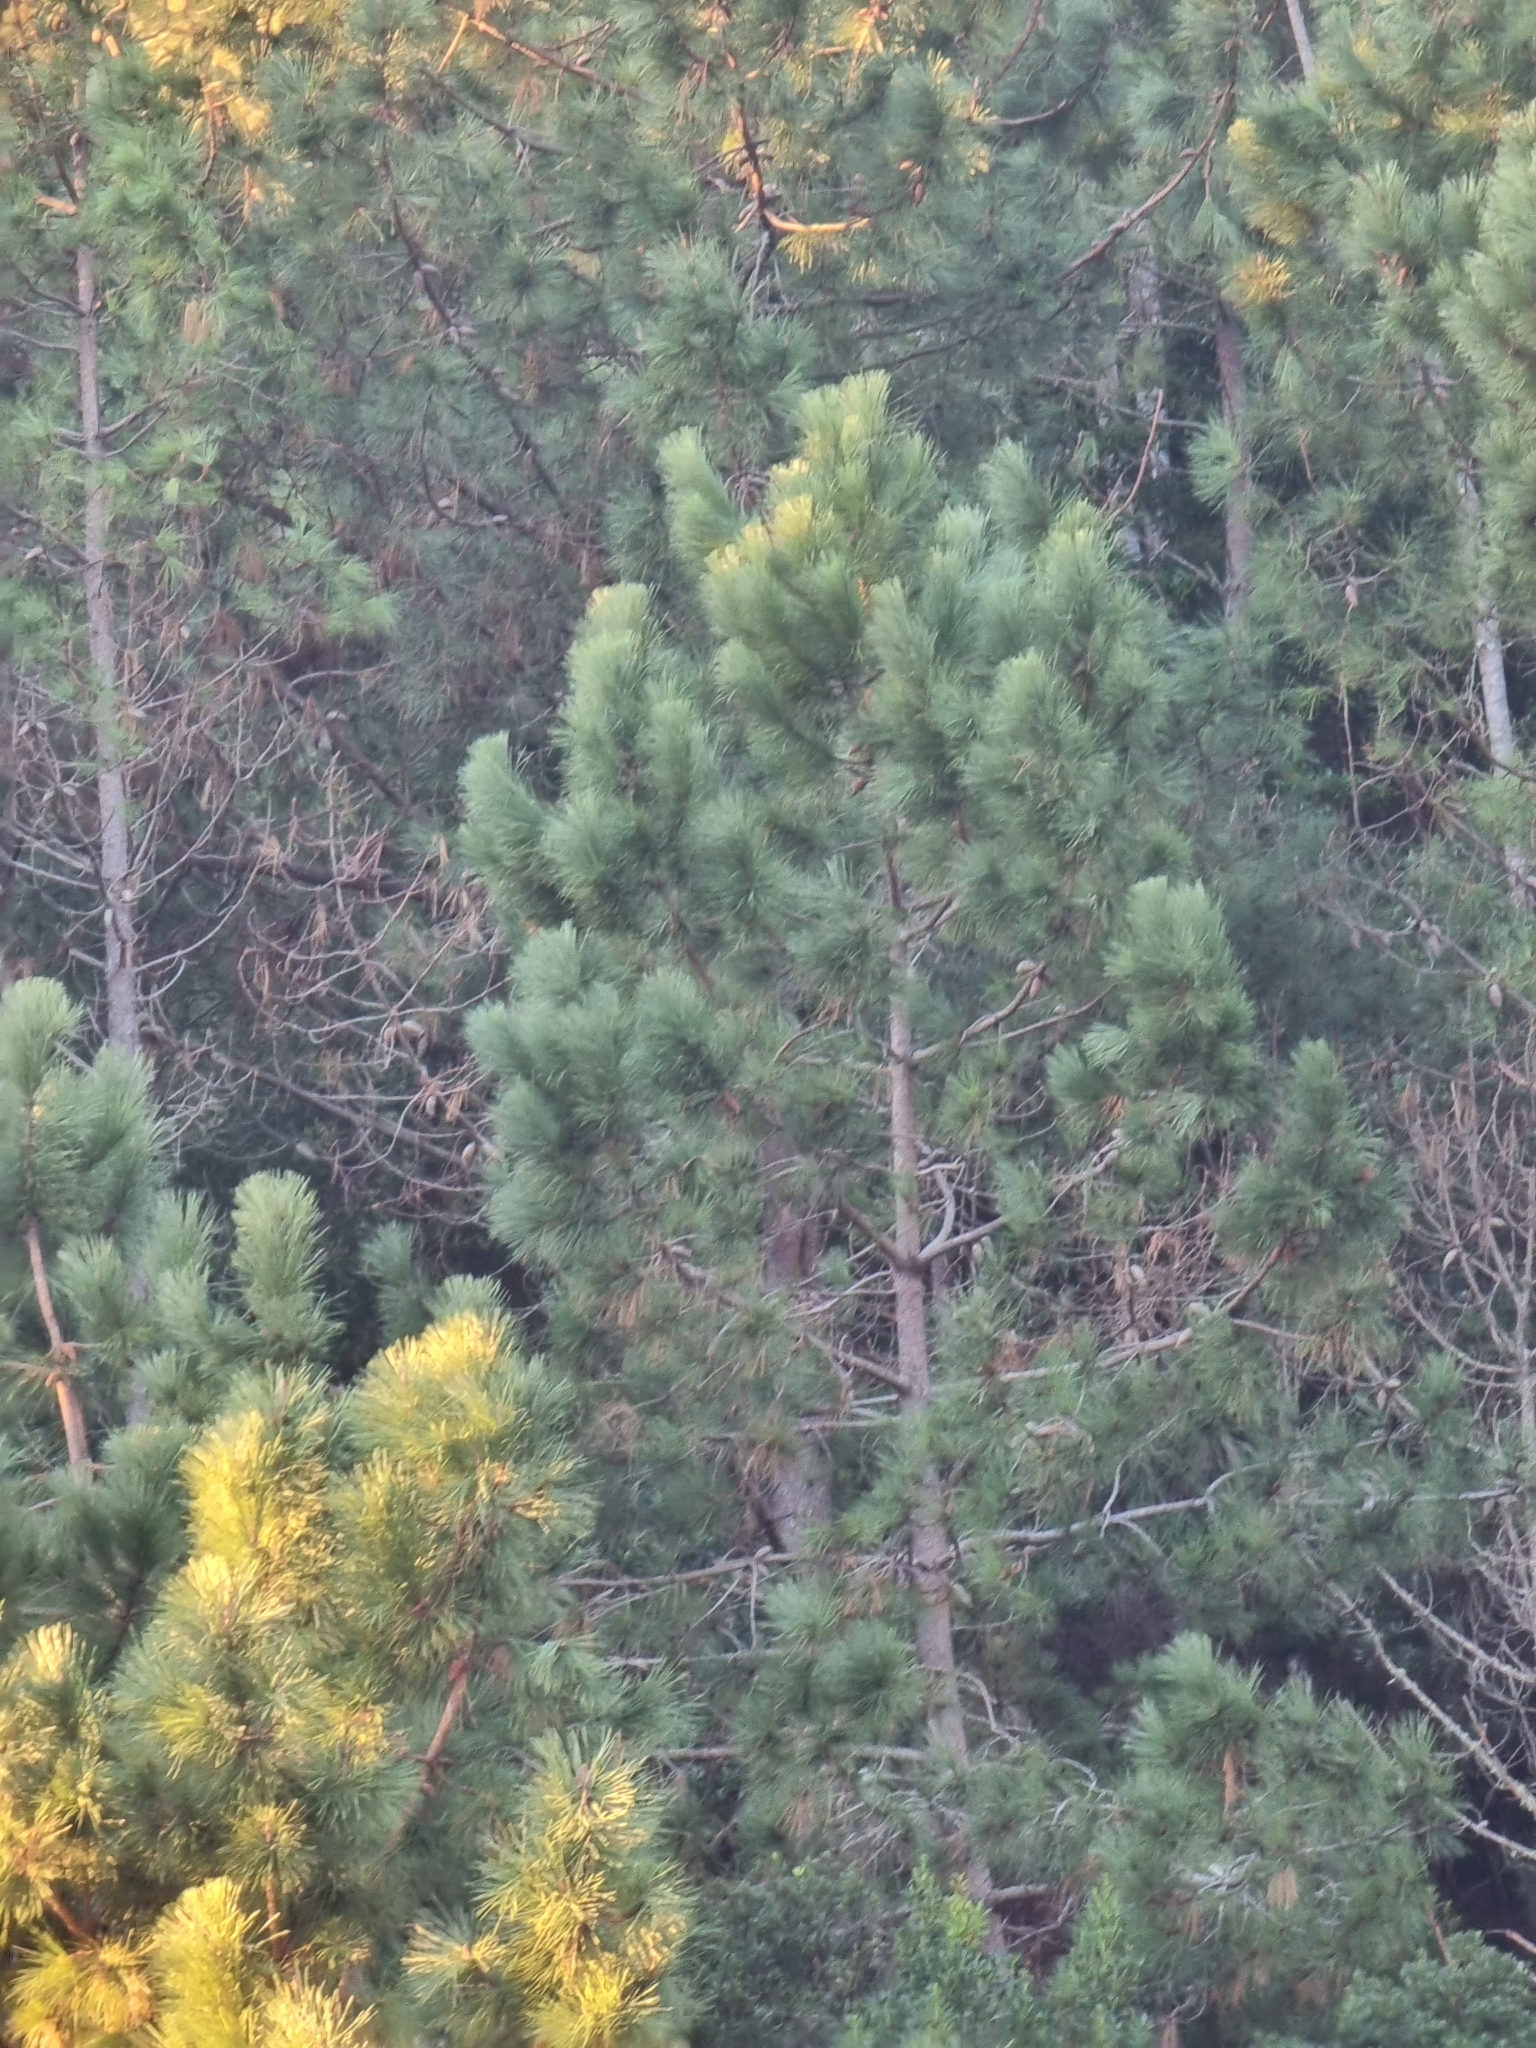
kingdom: Plantae
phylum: Tracheophyta
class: Pinopsida
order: Pinales
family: Pinaceae
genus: Pinus
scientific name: Pinus pinaster
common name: Maritime pine
